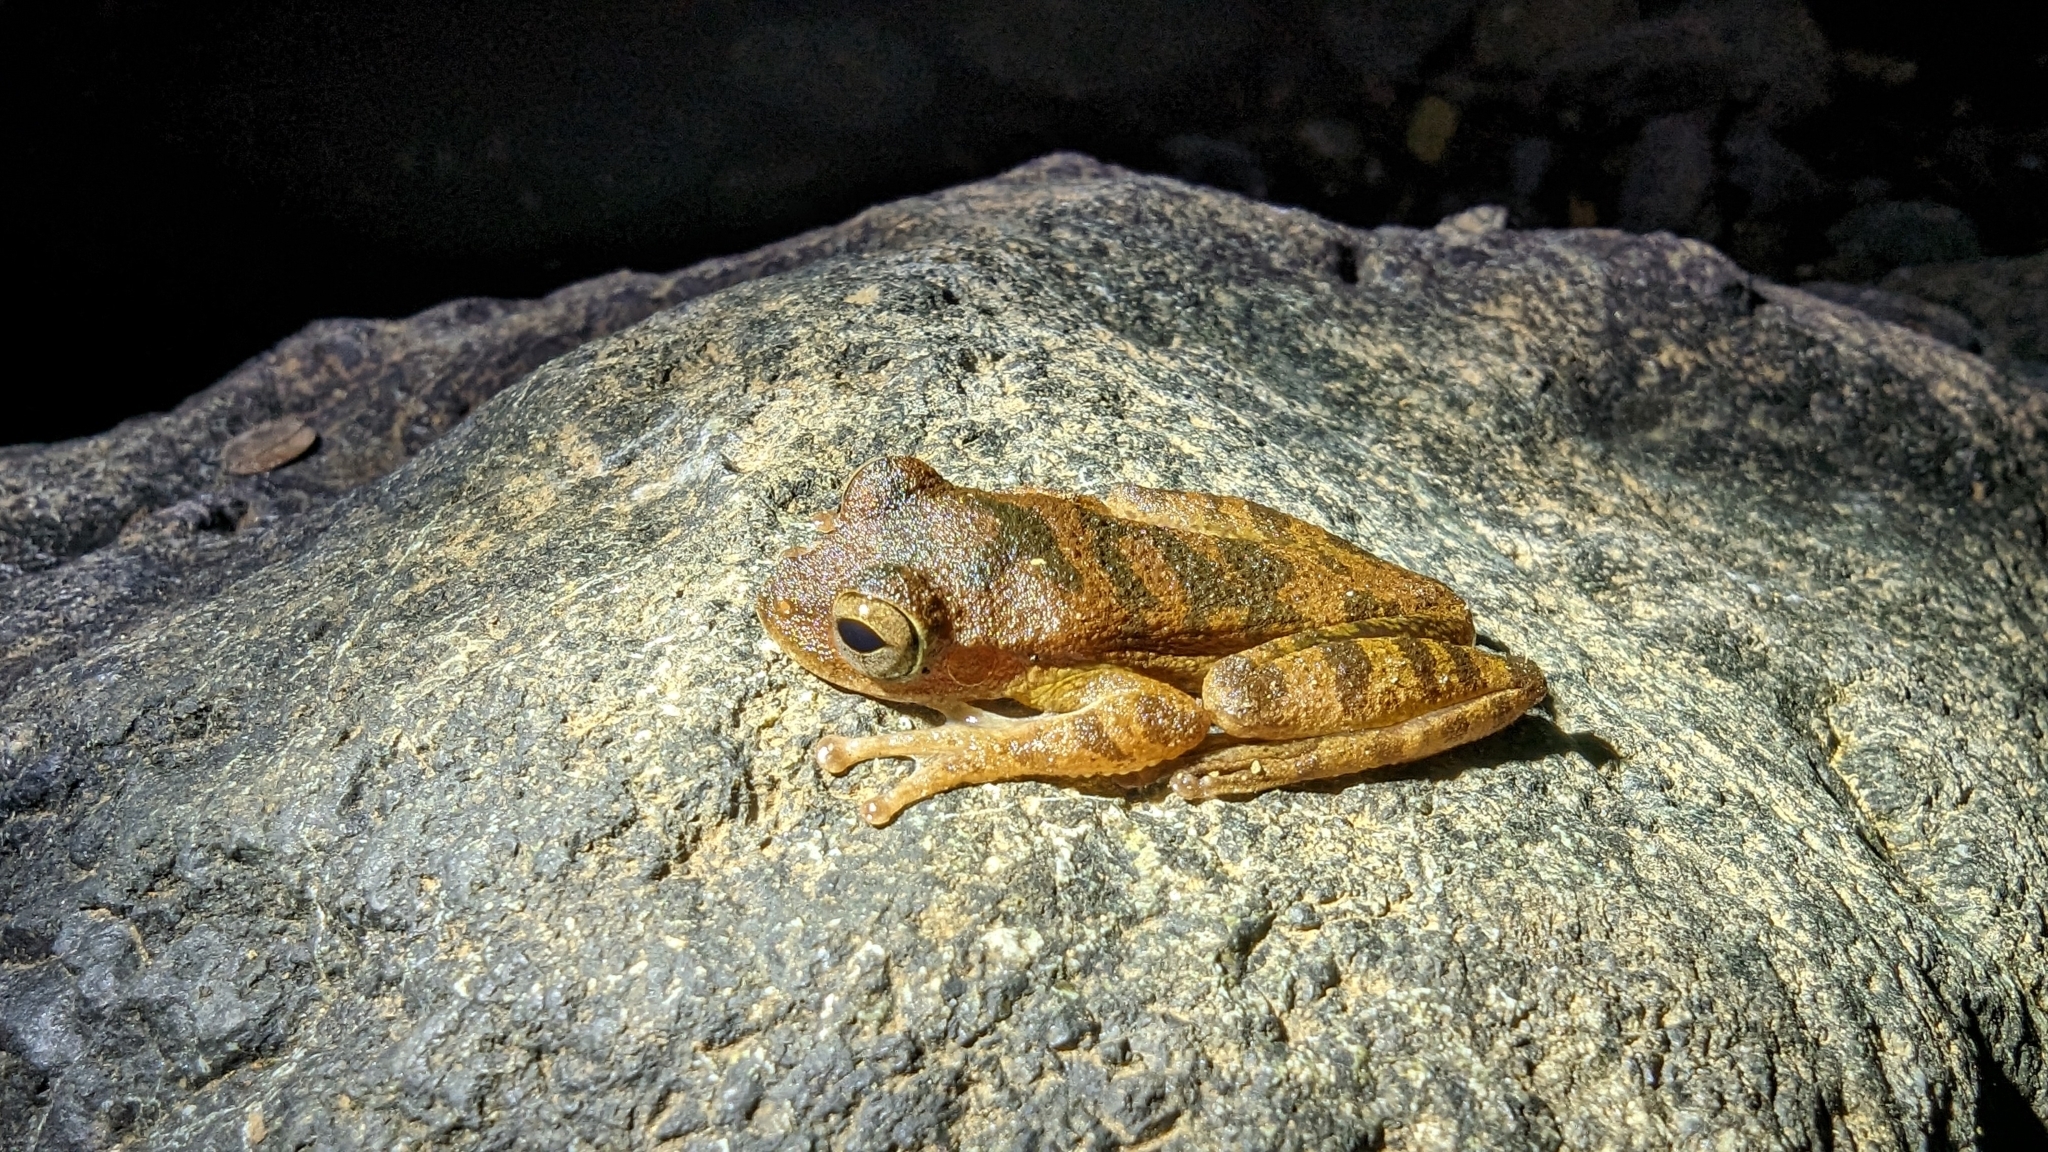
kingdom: Animalia
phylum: Chordata
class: Amphibia
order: Anura
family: Hylidae
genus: Smilisca
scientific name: Smilisca sordida
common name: Veragua cross-banded treefrog
